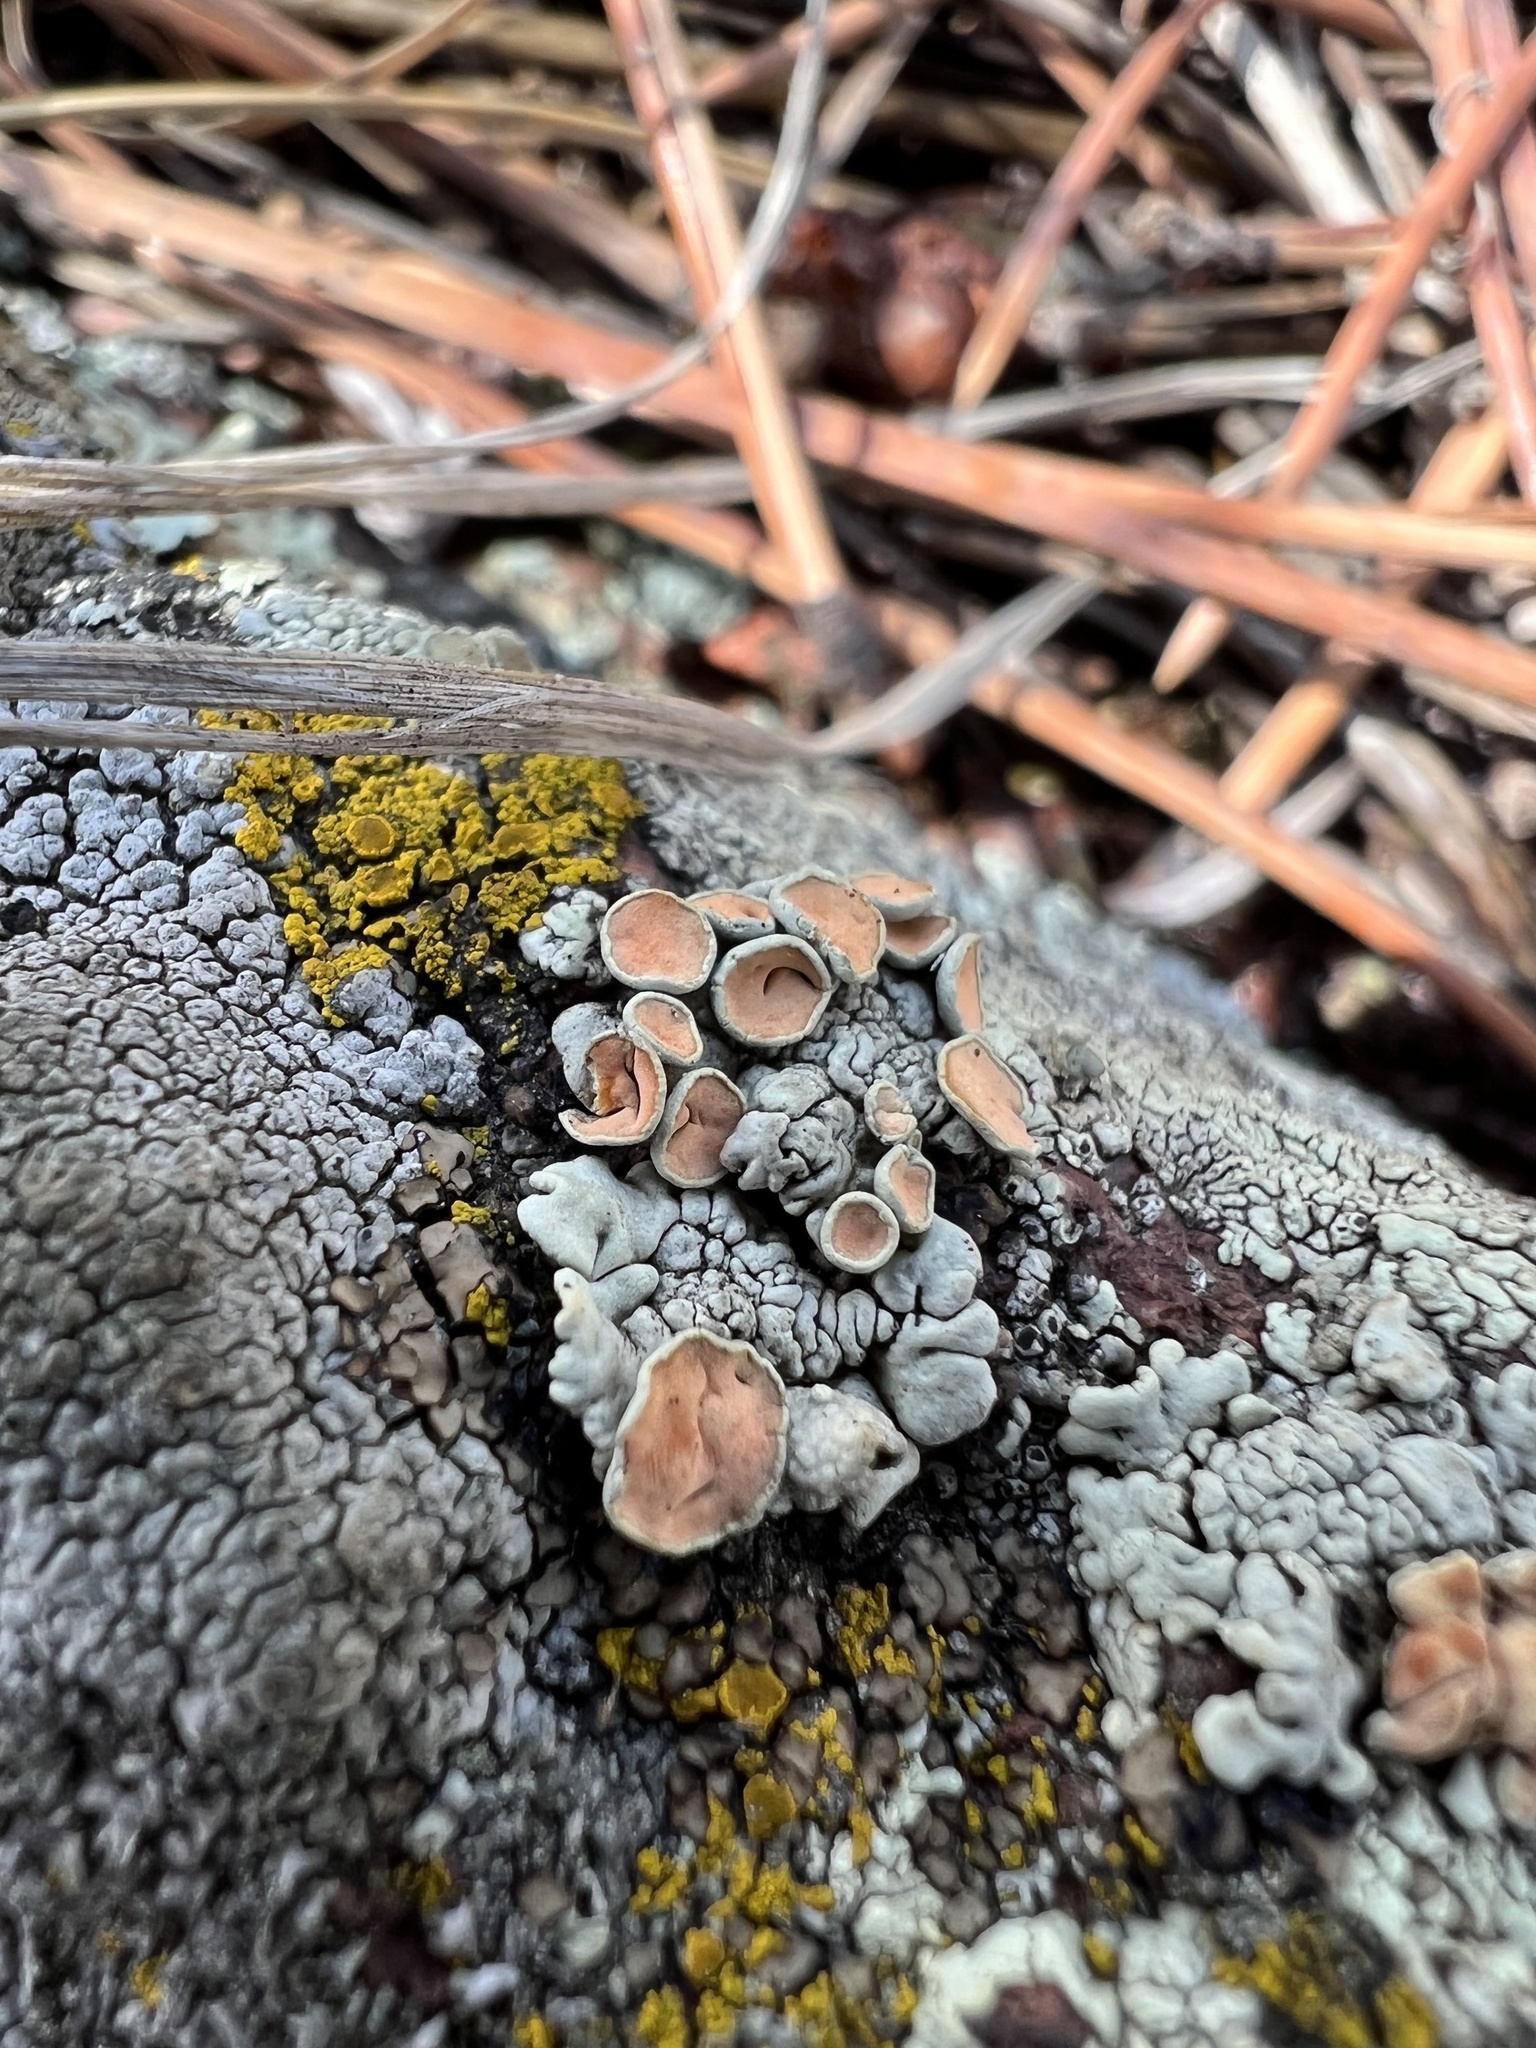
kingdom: Fungi
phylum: Ascomycota
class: Lecanoromycetes
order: Lecanorales
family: Lecanoraceae
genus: Omphalodina
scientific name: Omphalodina chrysoleuca
